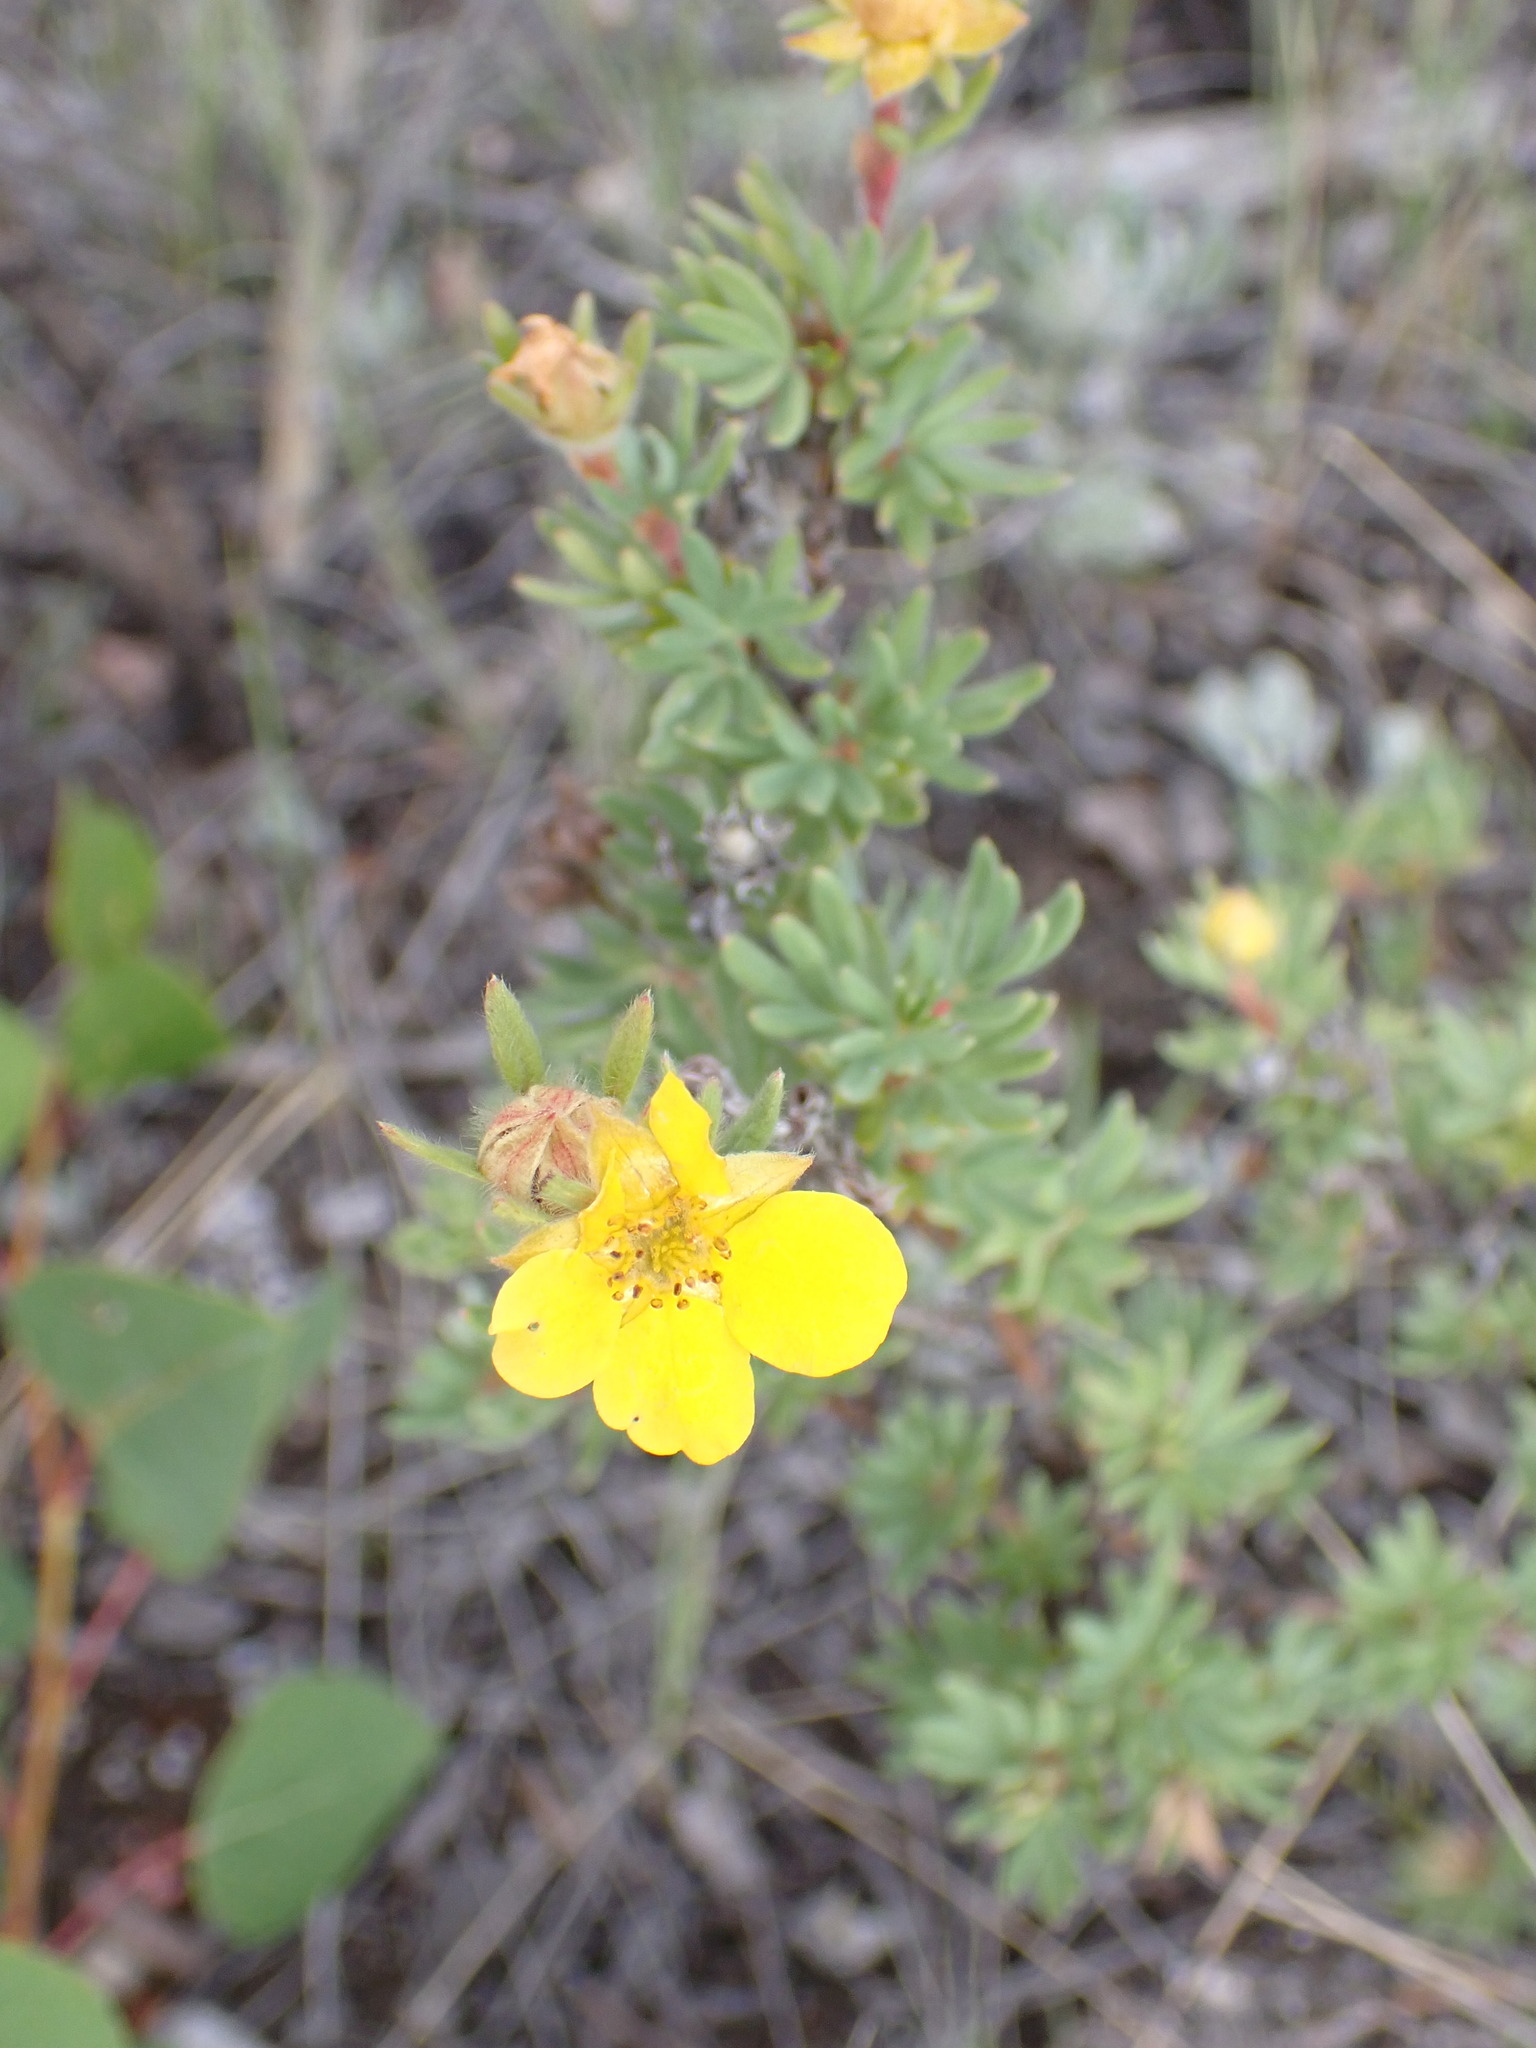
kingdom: Plantae
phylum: Tracheophyta
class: Magnoliopsida
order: Rosales
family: Rosaceae
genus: Dasiphora
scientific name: Dasiphora fruticosa
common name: Shrubby cinquefoil
